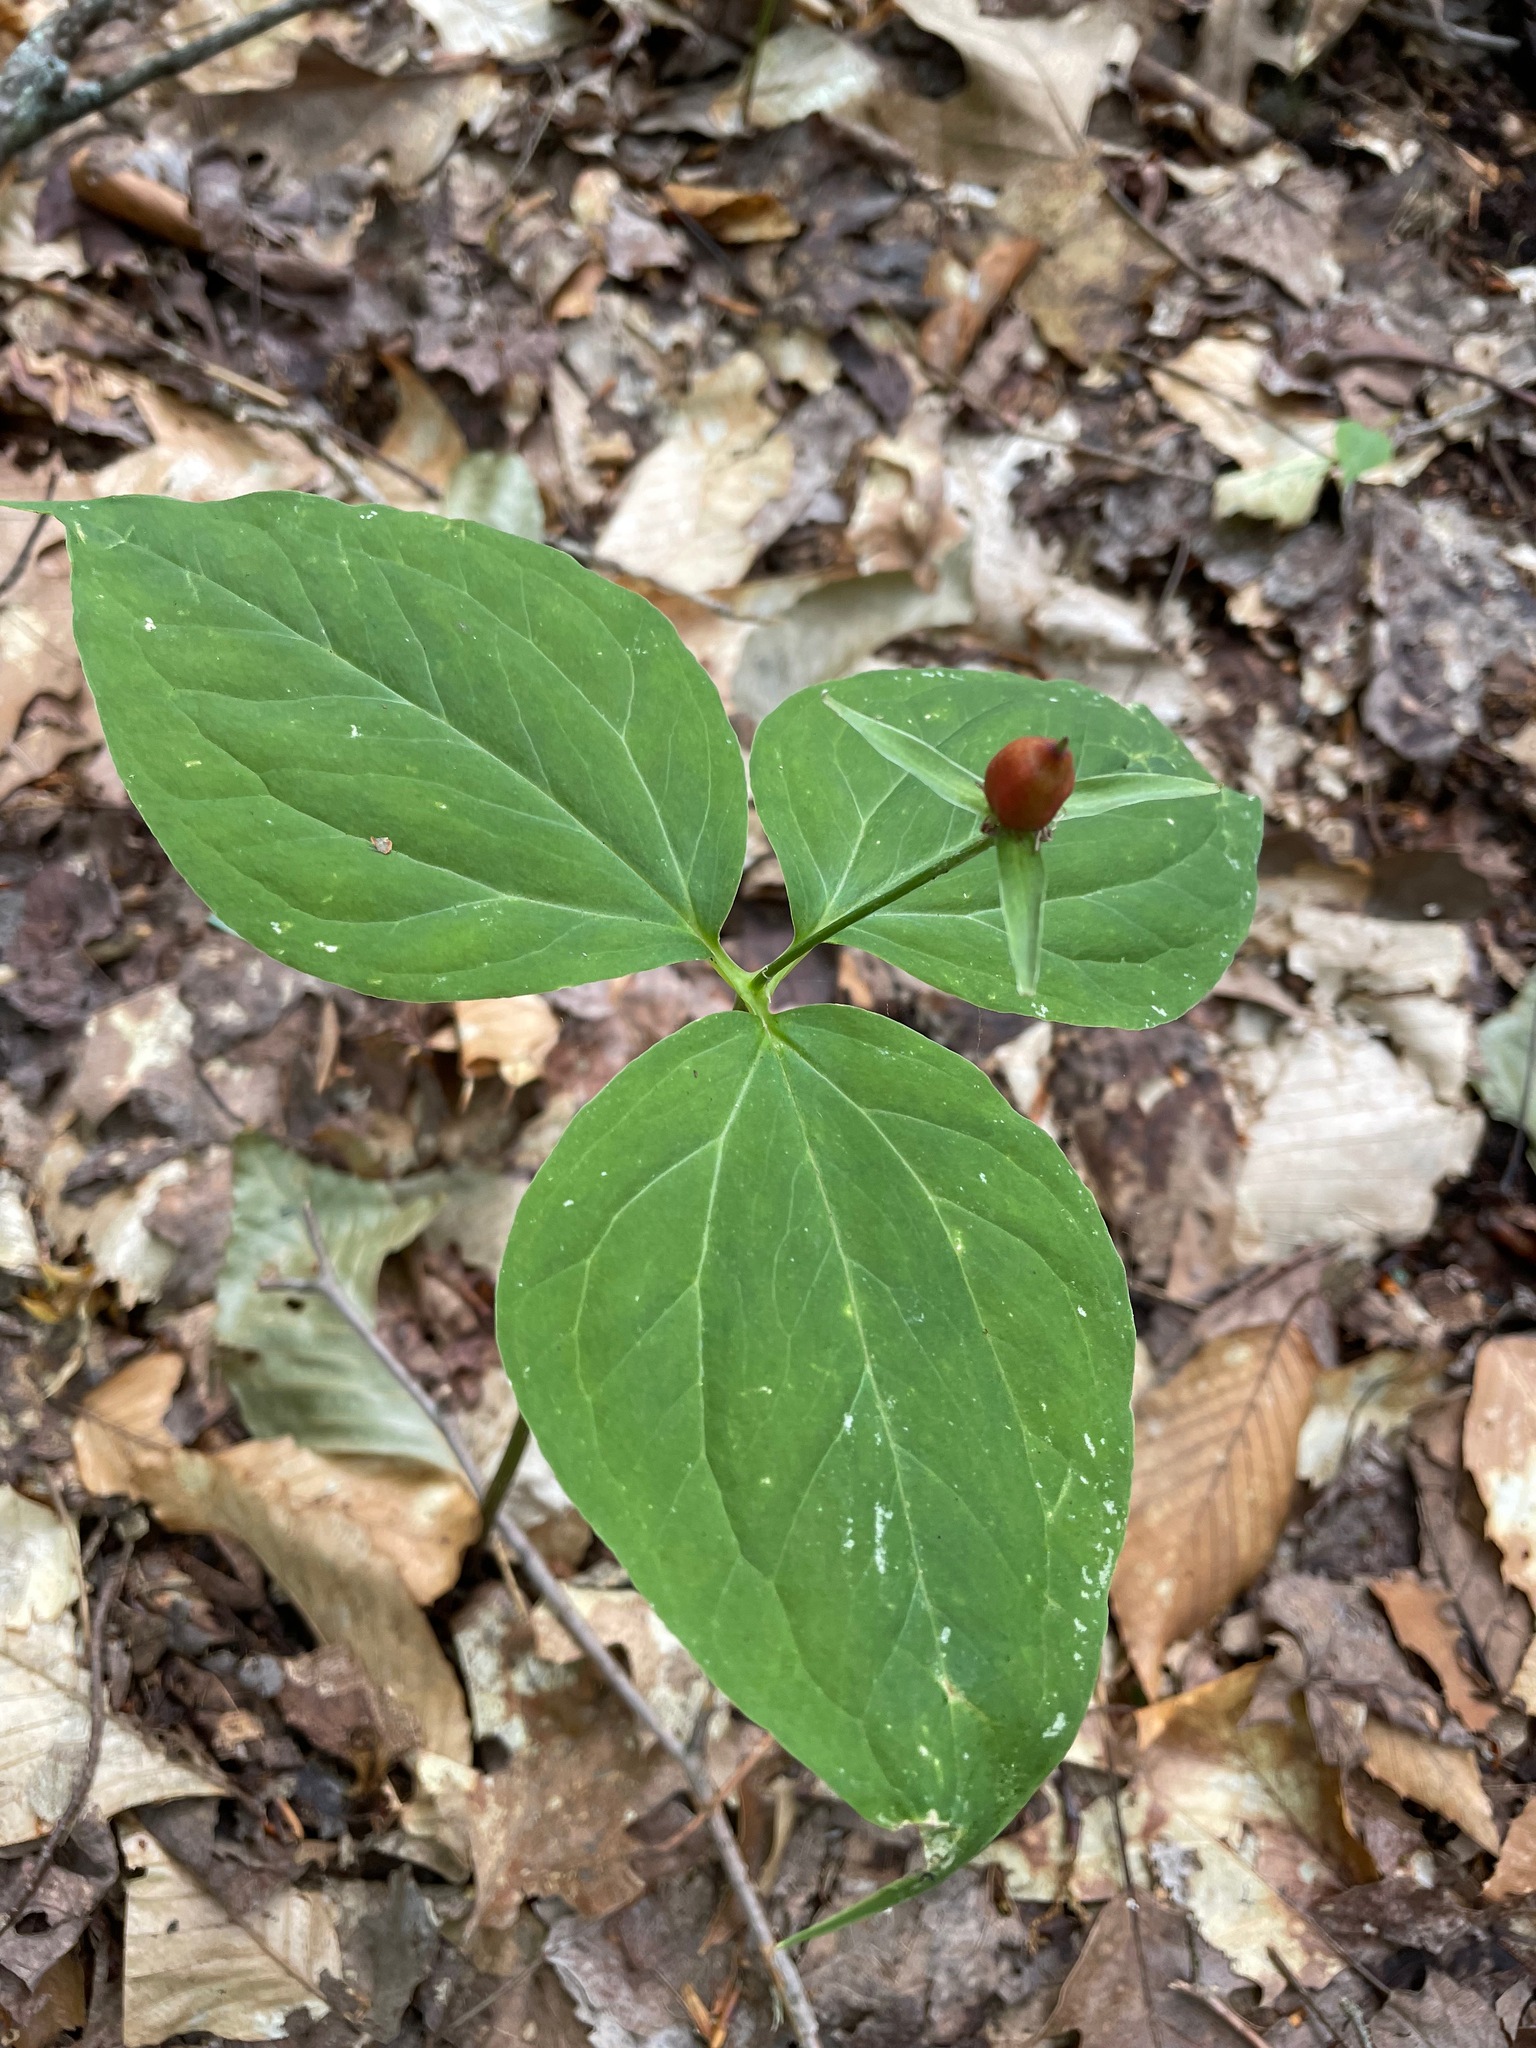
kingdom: Plantae
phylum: Tracheophyta
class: Liliopsida
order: Liliales
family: Melanthiaceae
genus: Trillium
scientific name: Trillium undulatum
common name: Paint trillium
